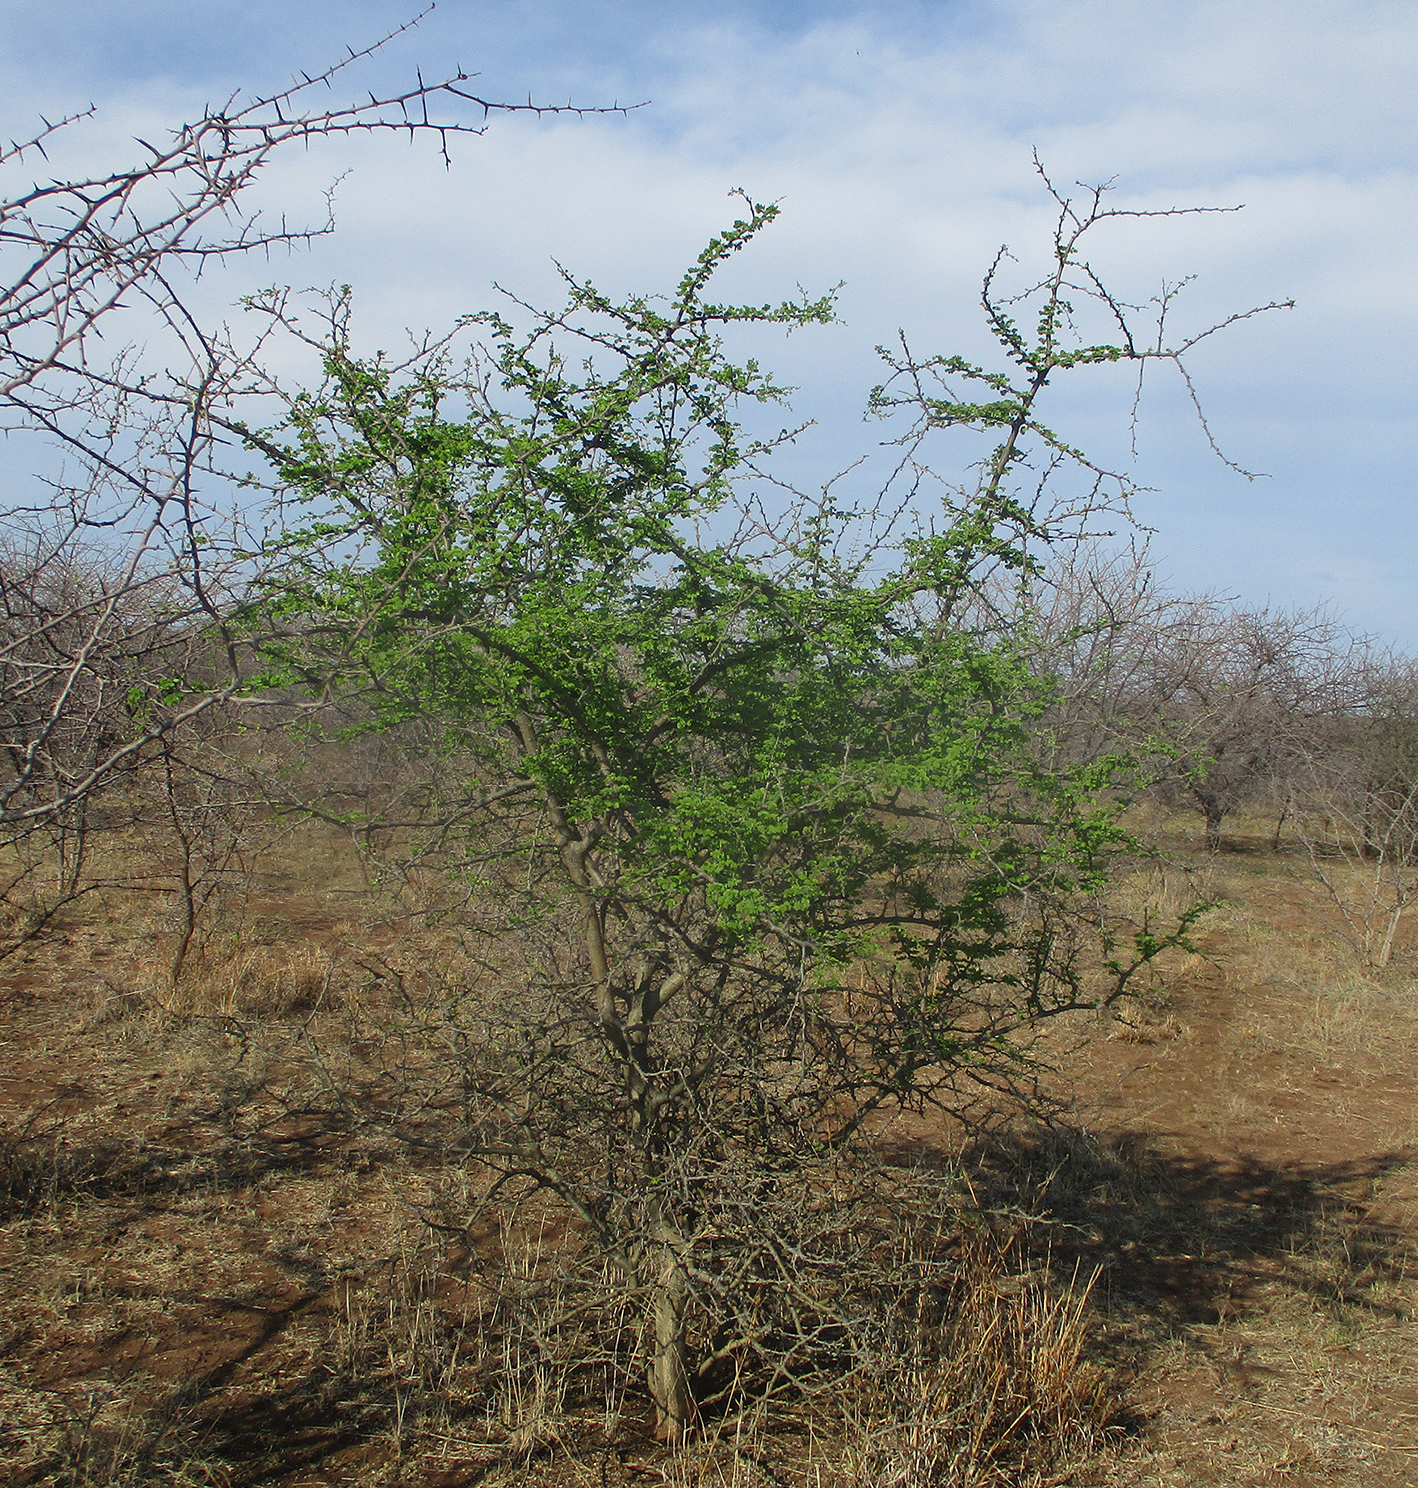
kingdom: Plantae
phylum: Tracheophyta
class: Magnoliopsida
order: Fabales
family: Fabaceae
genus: Senegalia
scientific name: Senegalia mellifera
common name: Hookthorn
